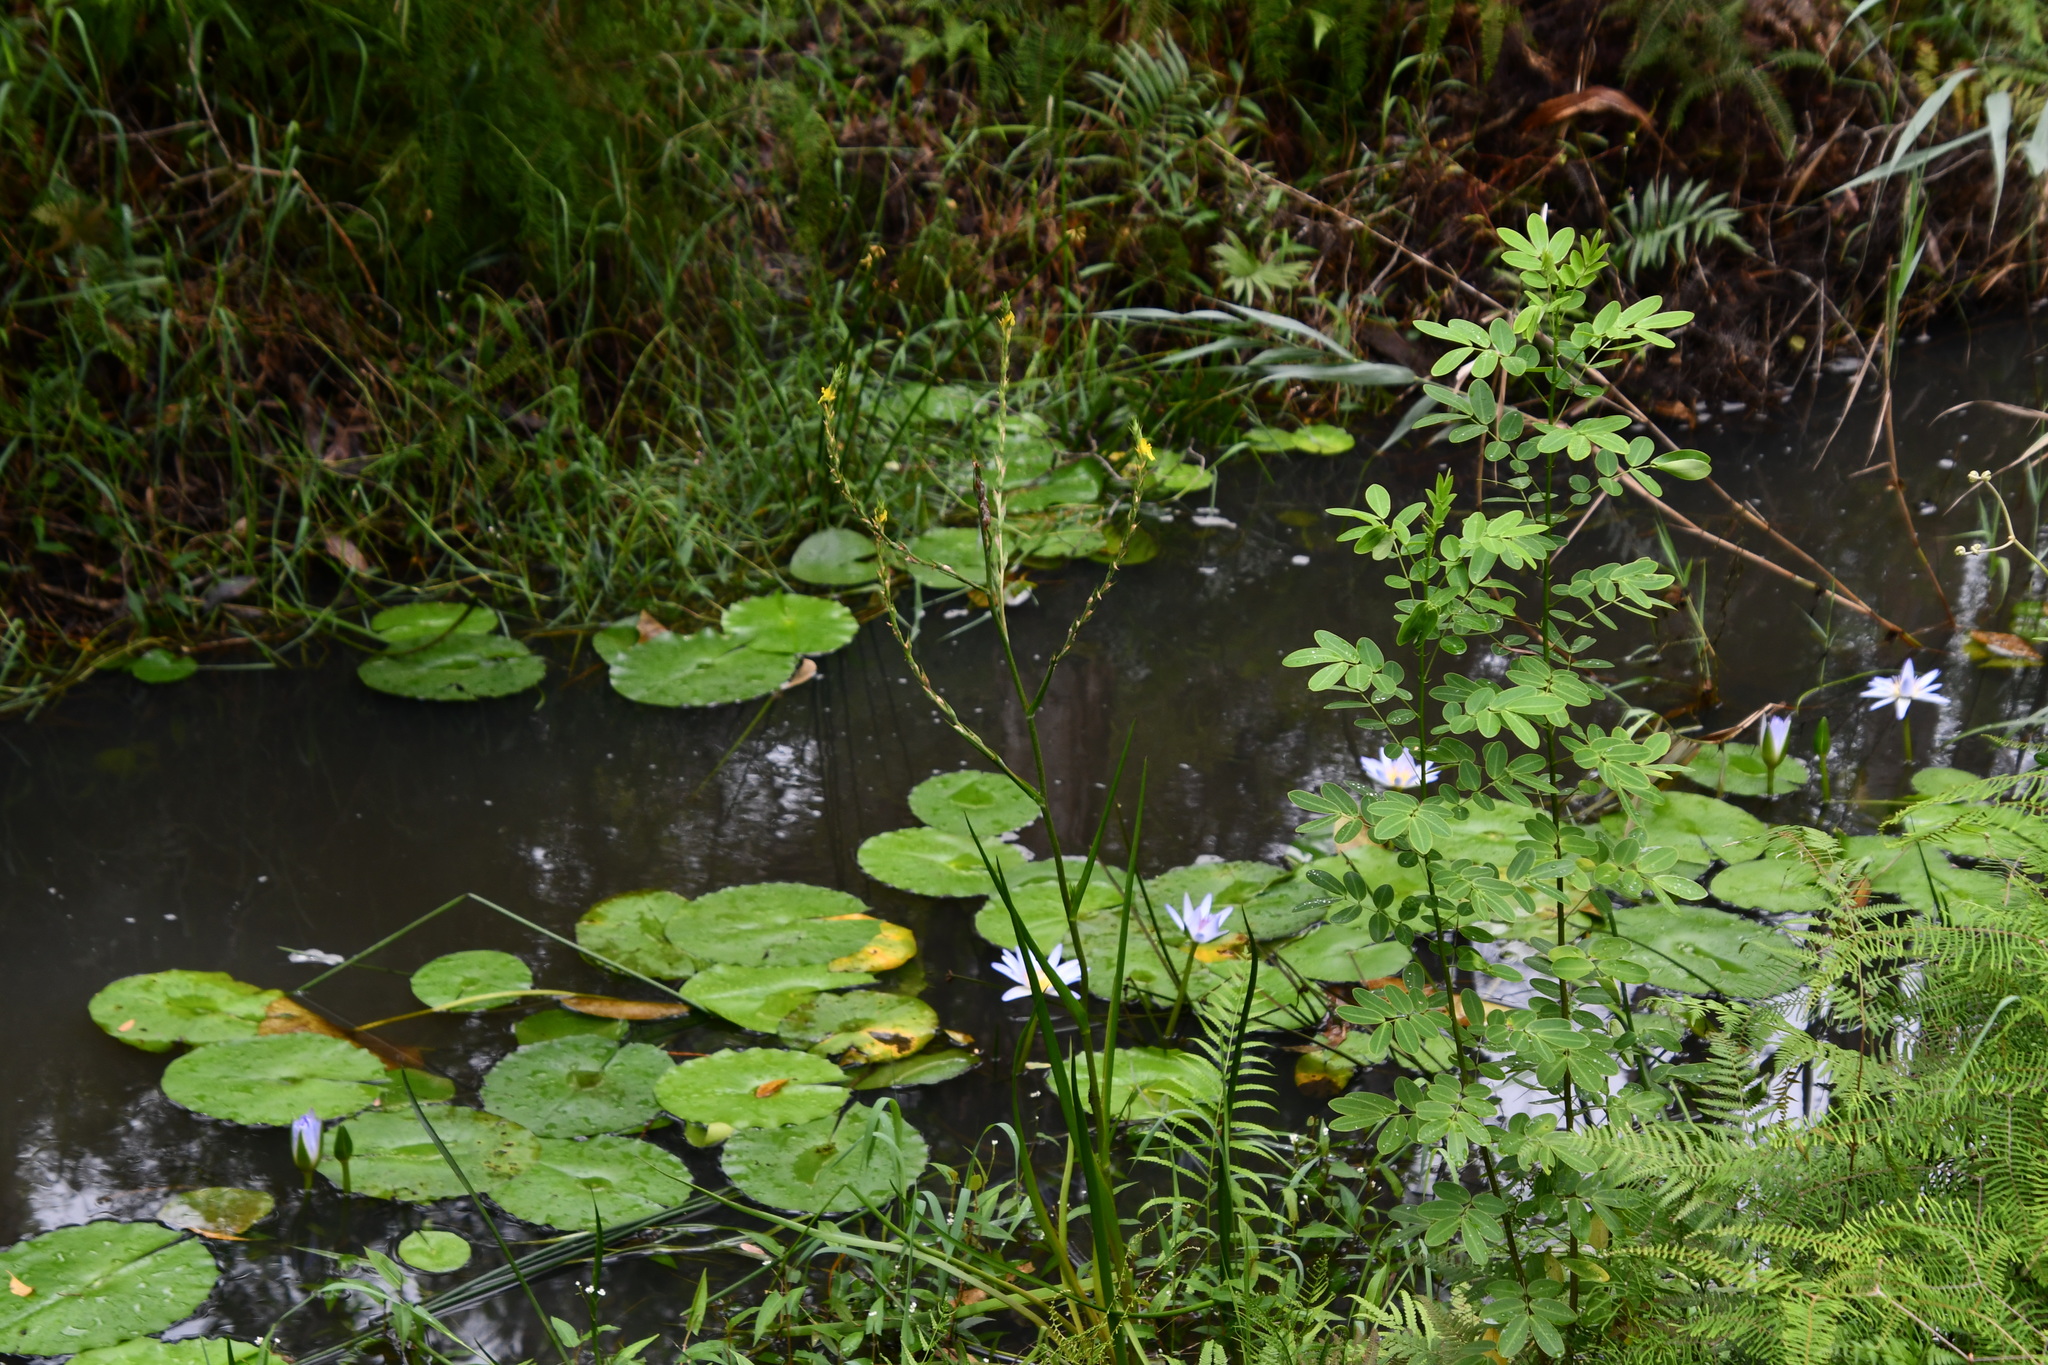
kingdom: Plantae
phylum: Tracheophyta
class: Liliopsida
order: Commelinales
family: Philydraceae
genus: Philydrum
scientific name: Philydrum lanuginosum
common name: Woolly frog's mouth
